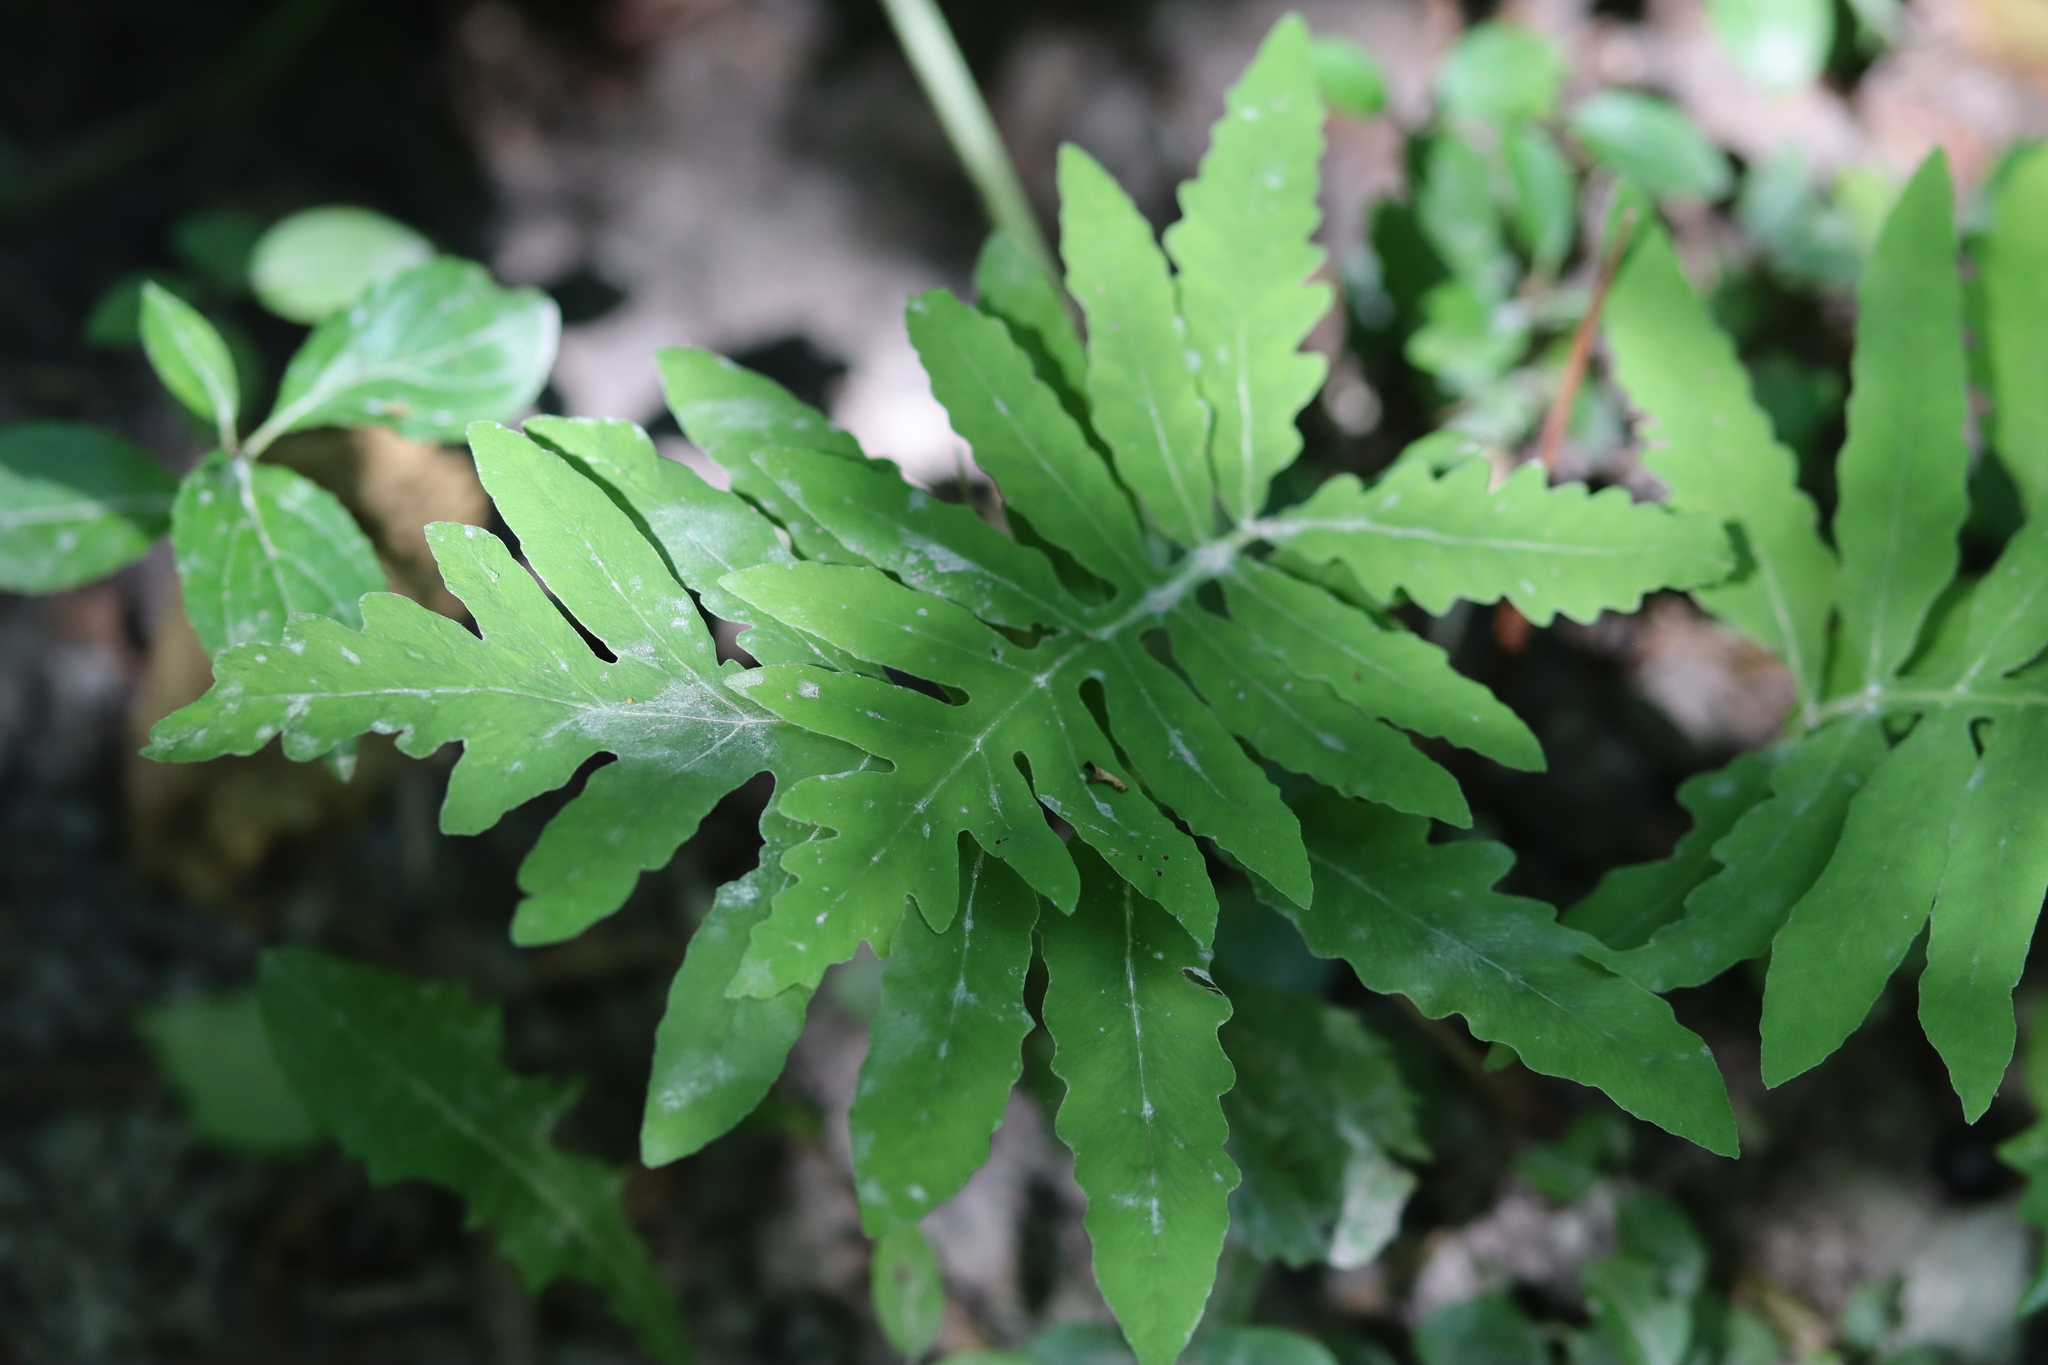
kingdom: Plantae
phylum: Tracheophyta
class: Polypodiopsida
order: Polypodiales
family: Onocleaceae
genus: Onoclea
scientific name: Onoclea sensibilis
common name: Sensitive fern
